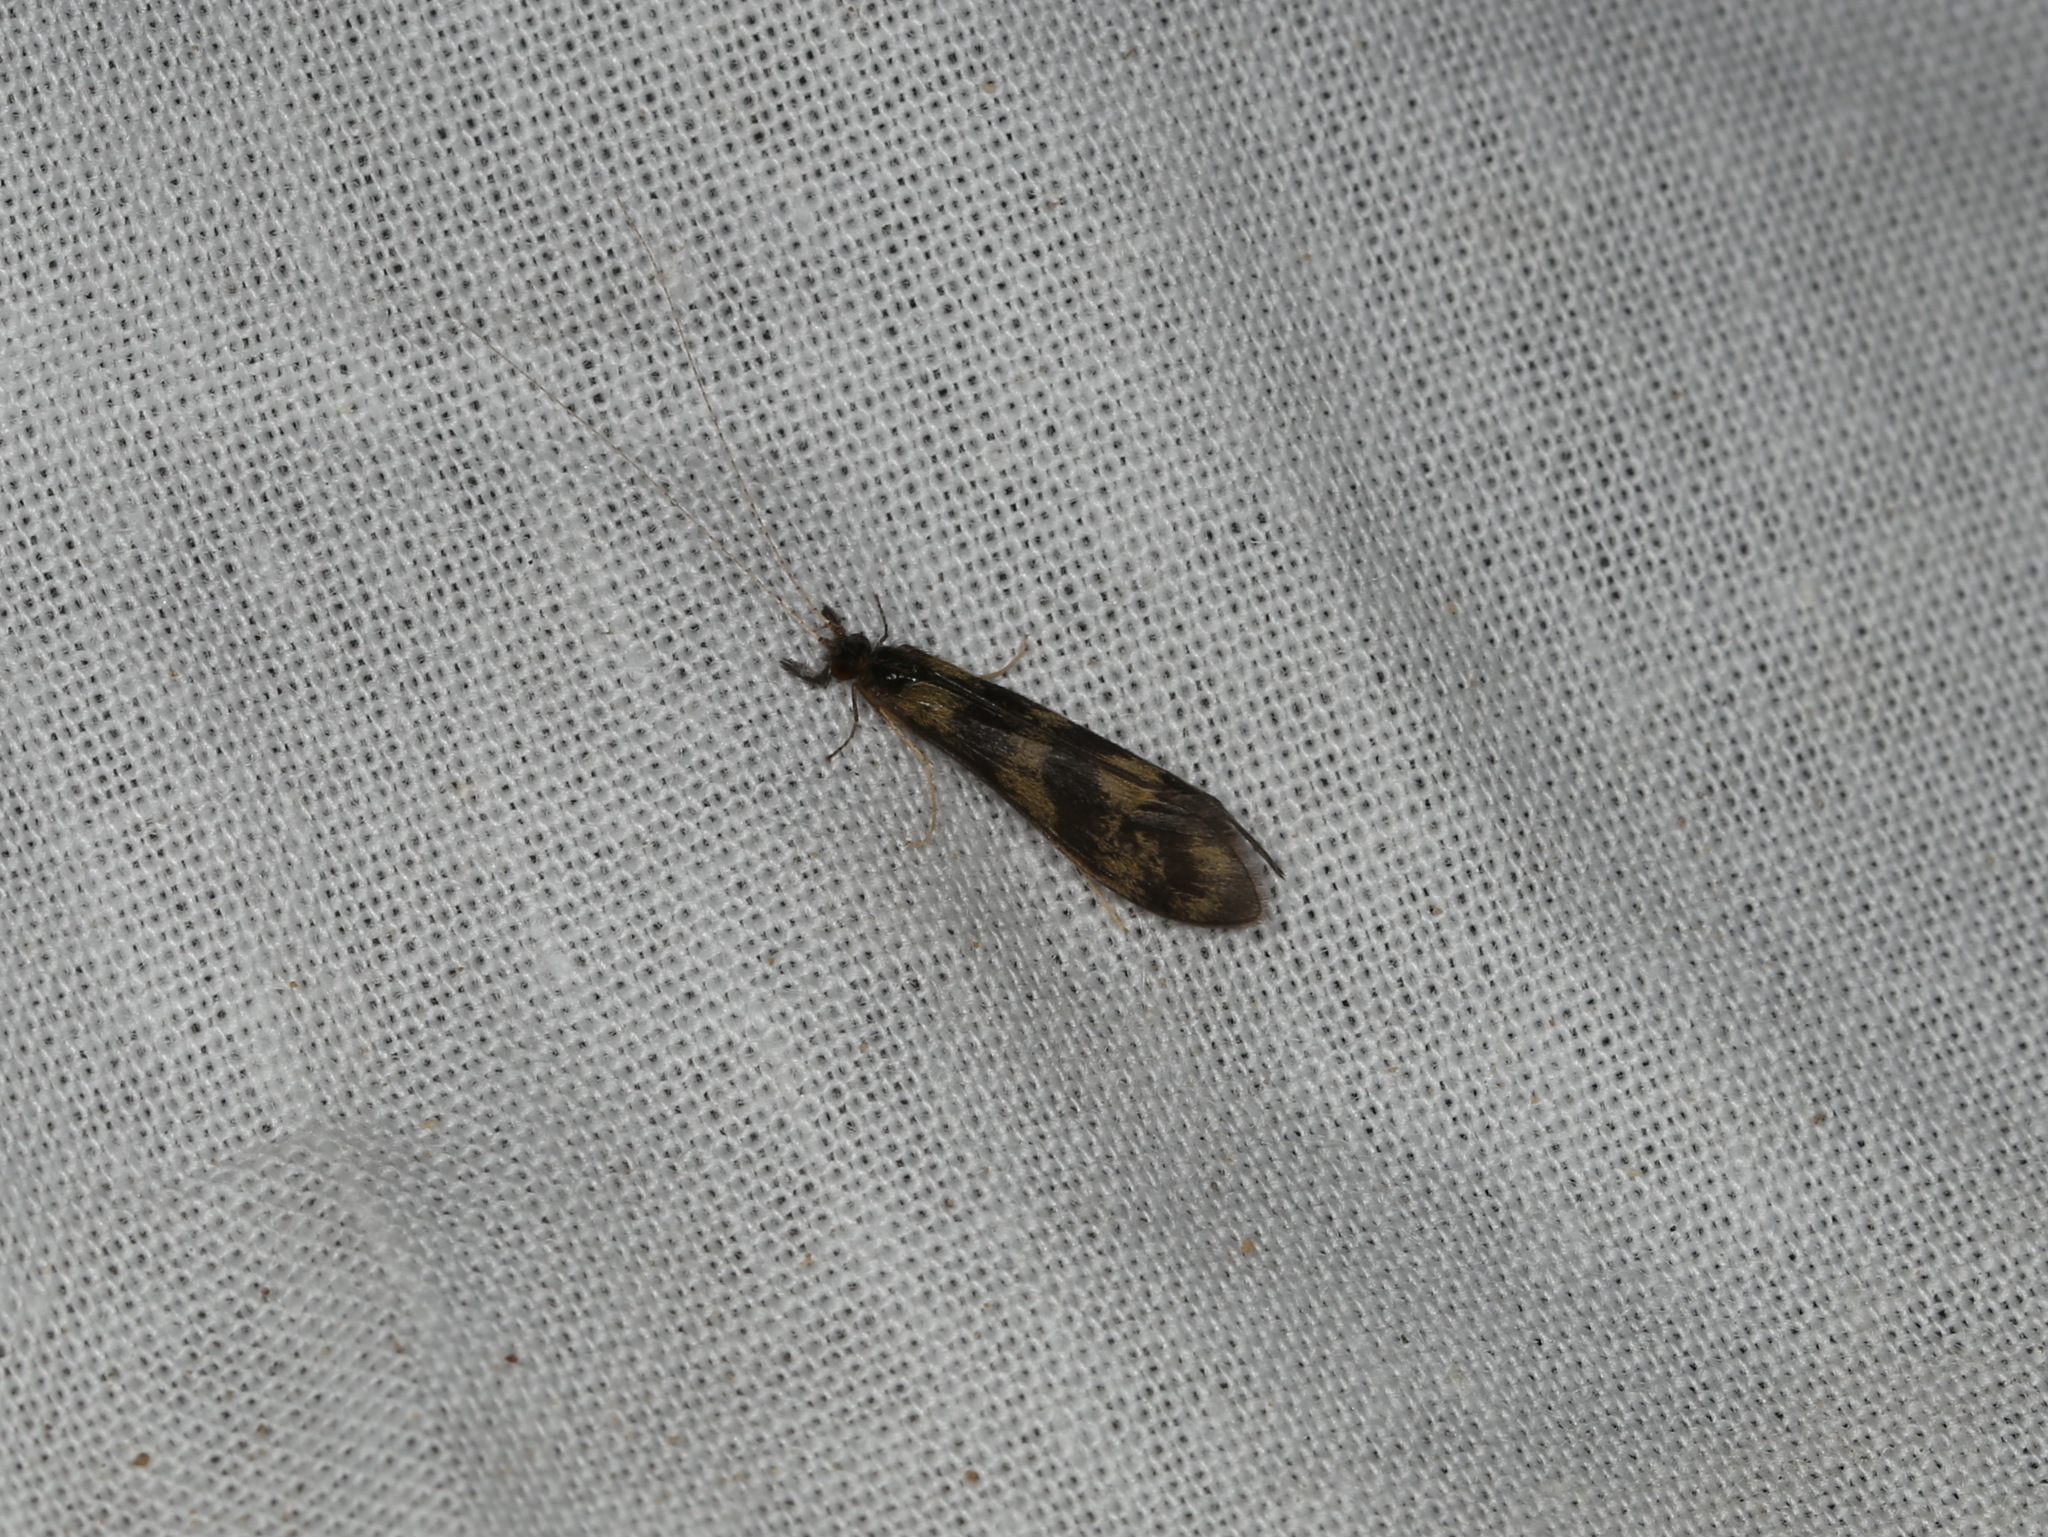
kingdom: Animalia
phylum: Arthropoda
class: Insecta
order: Trichoptera
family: Leptoceridae
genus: Mystacides
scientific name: Mystacides longicornis
